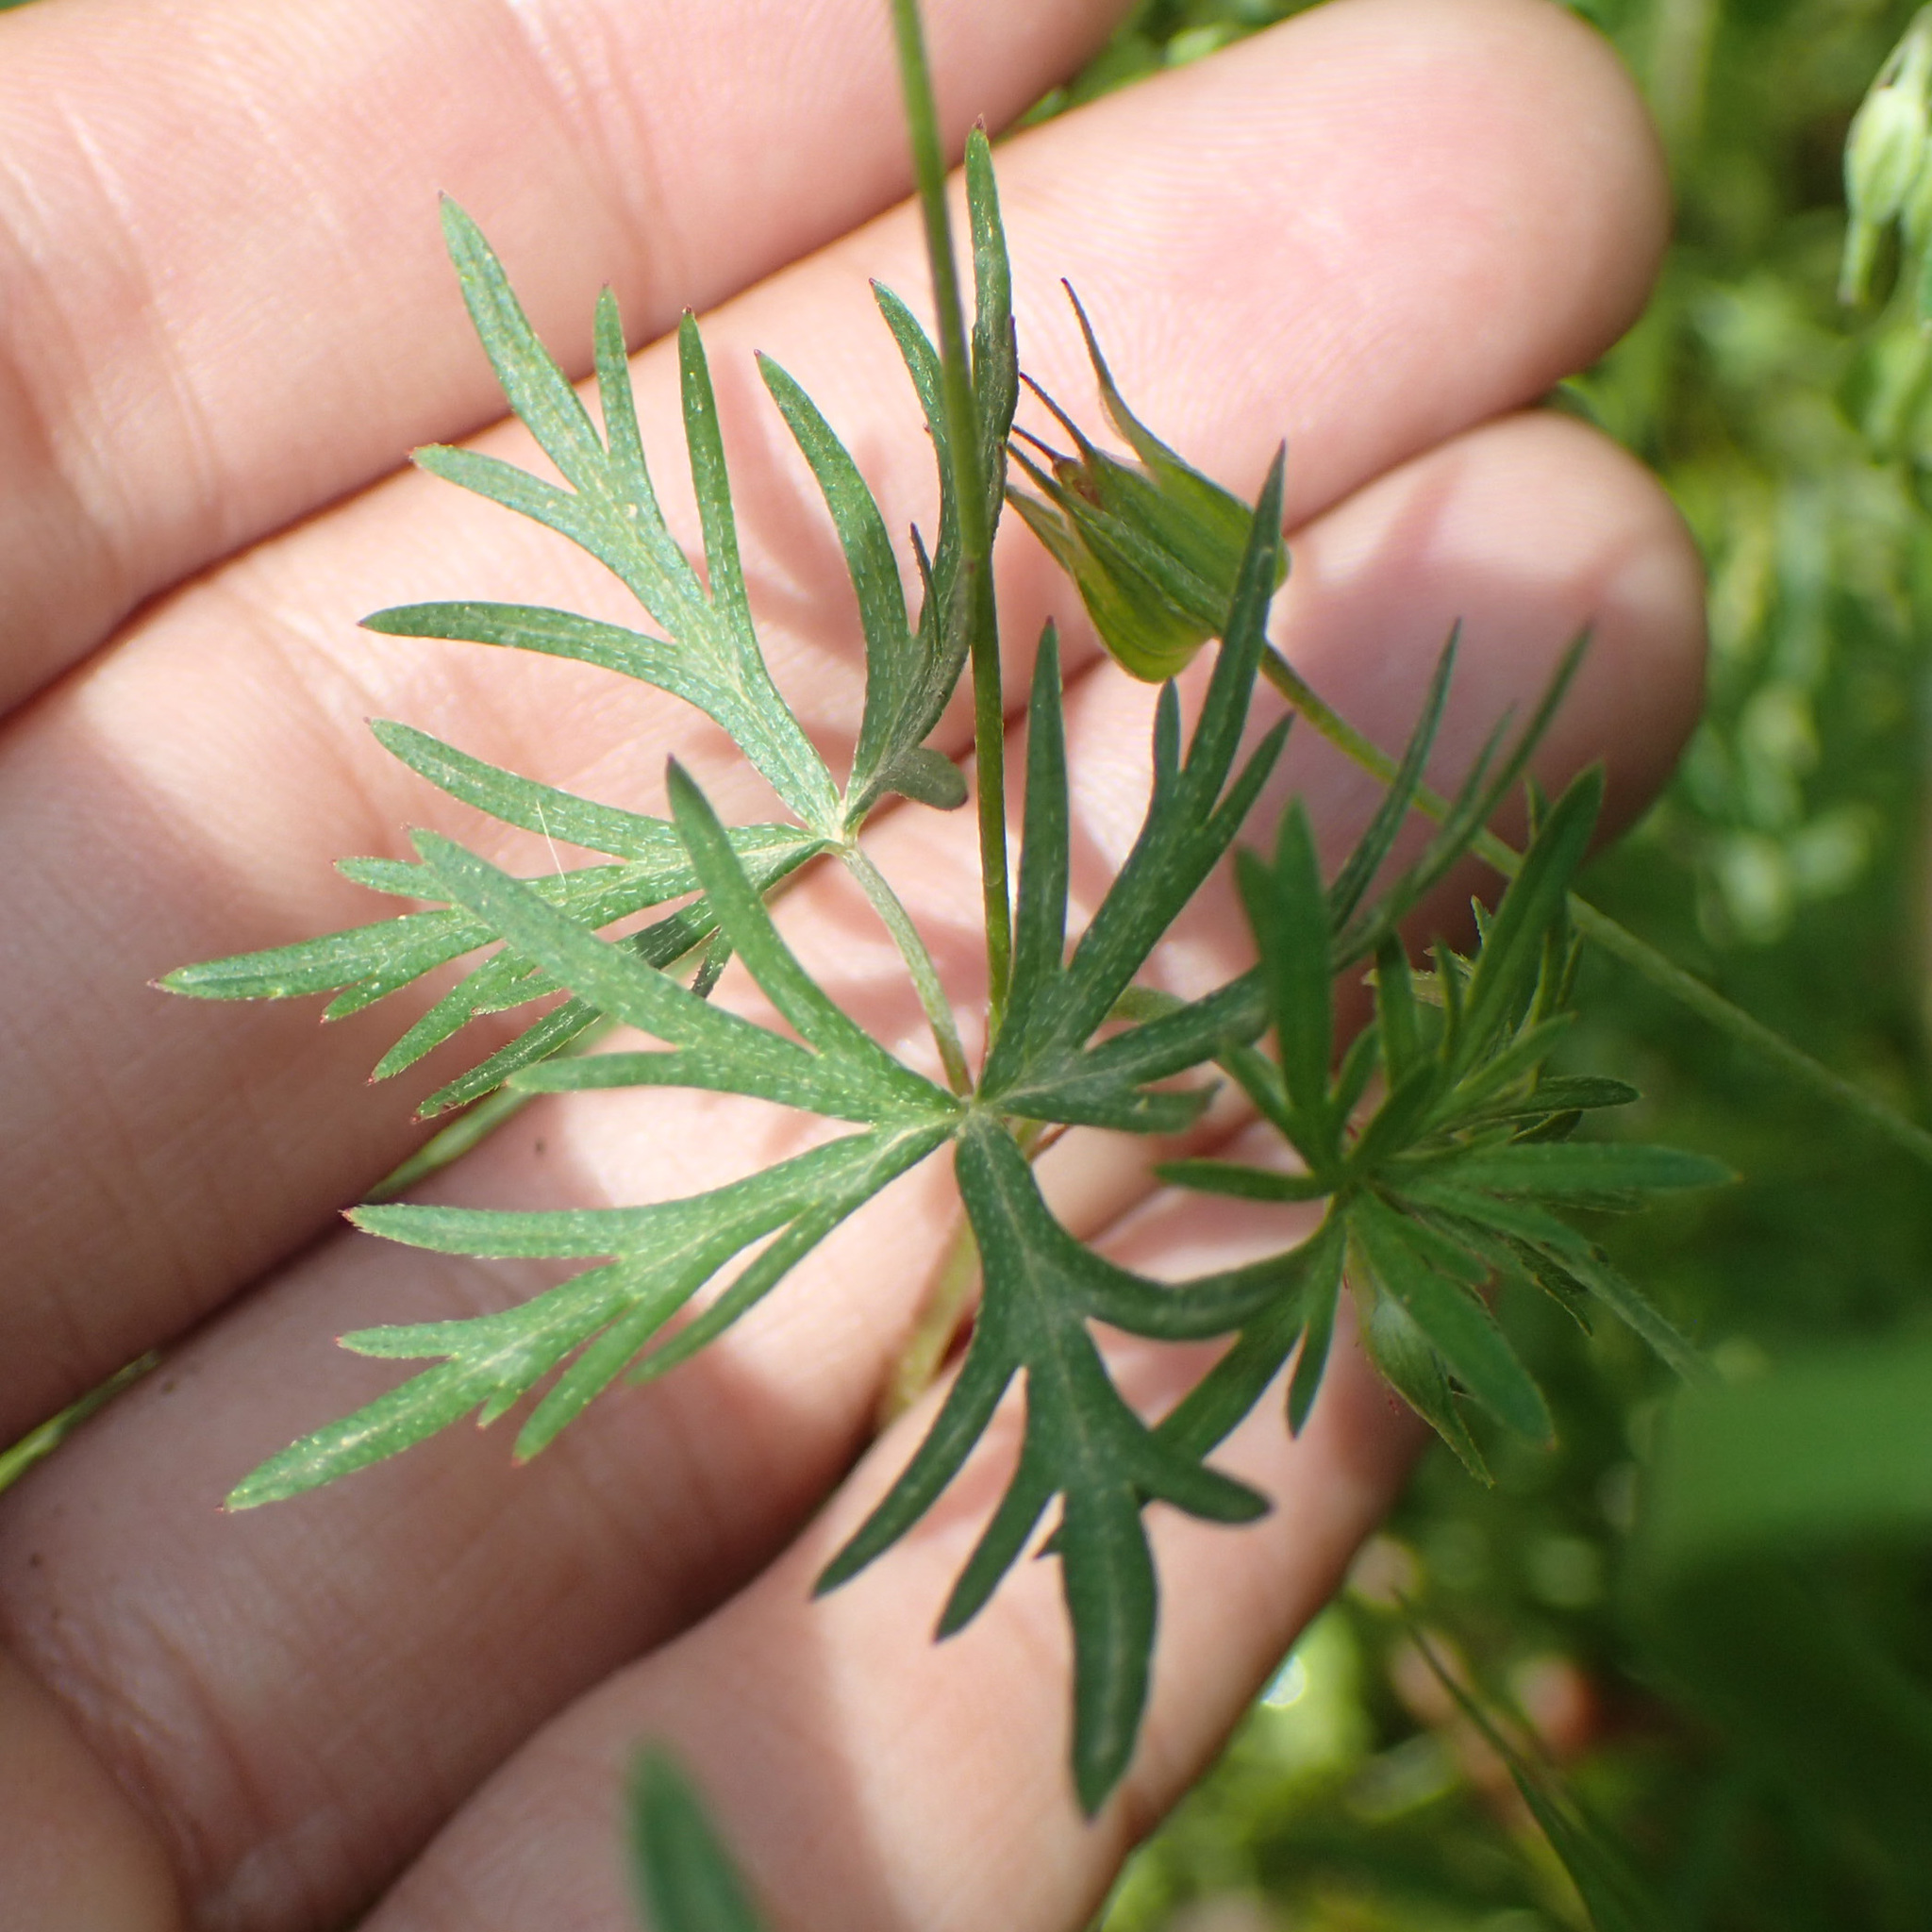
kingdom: Plantae
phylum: Tracheophyta
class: Magnoliopsida
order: Geraniales
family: Geraniaceae
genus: Geranium
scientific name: Geranium columbinum
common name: Long-stalked crane's-bill
